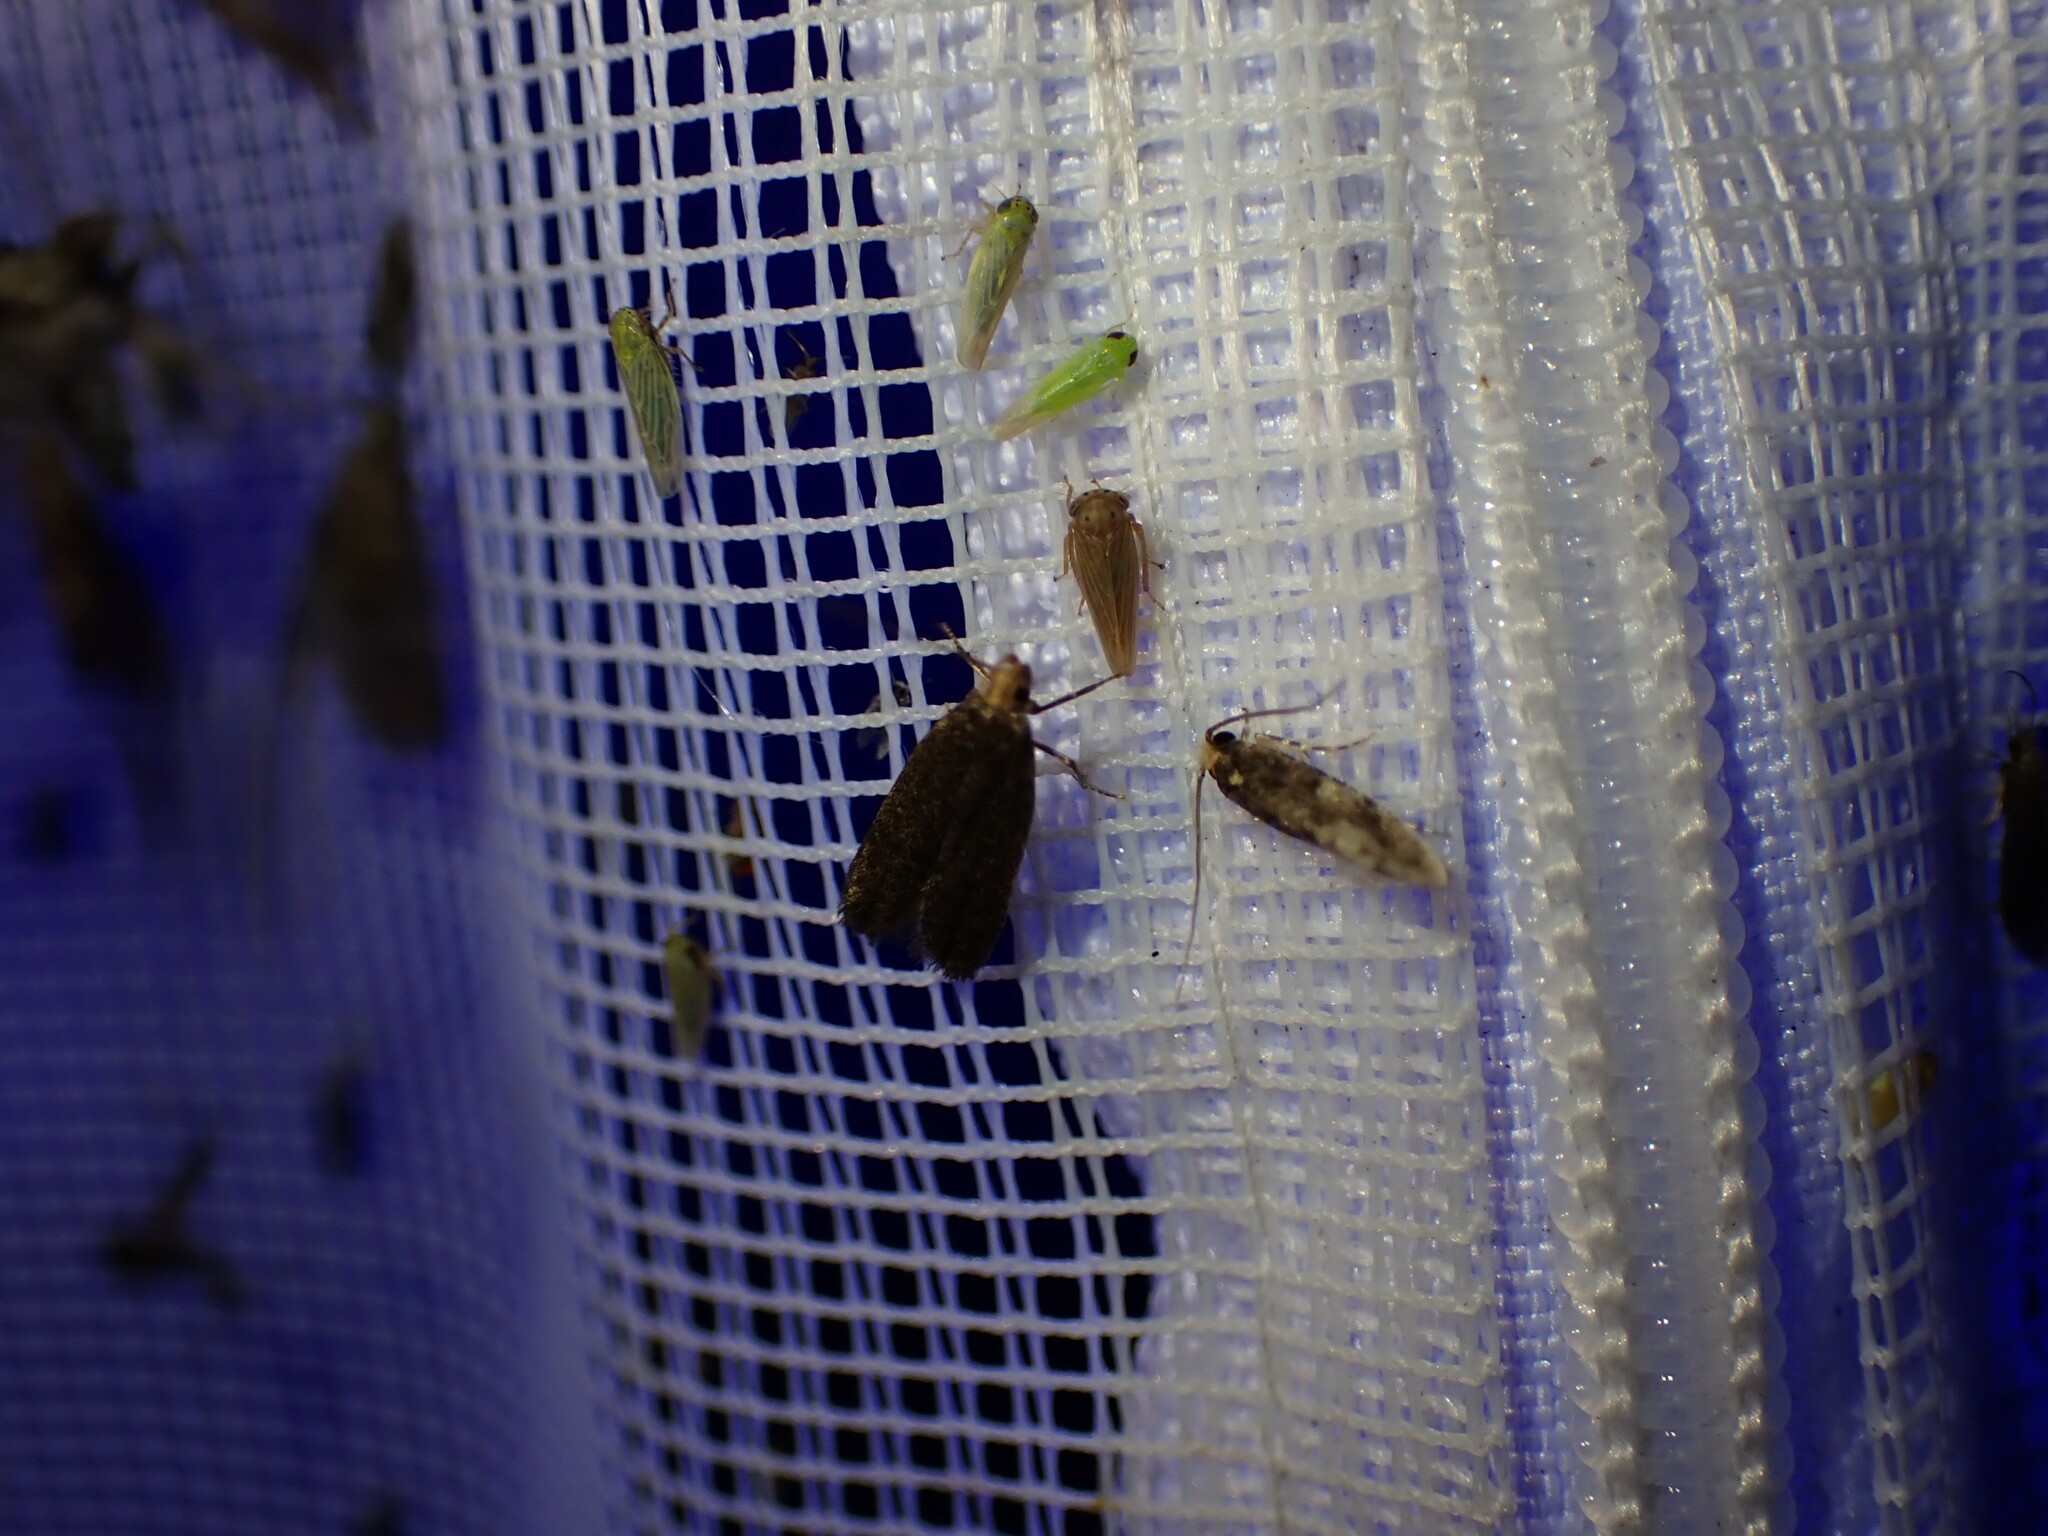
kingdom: Animalia
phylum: Arthropoda
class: Insecta
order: Lepidoptera
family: Tineidae
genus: Monopis
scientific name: Monopis marginistrigella
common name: White-blotched monopis moth
